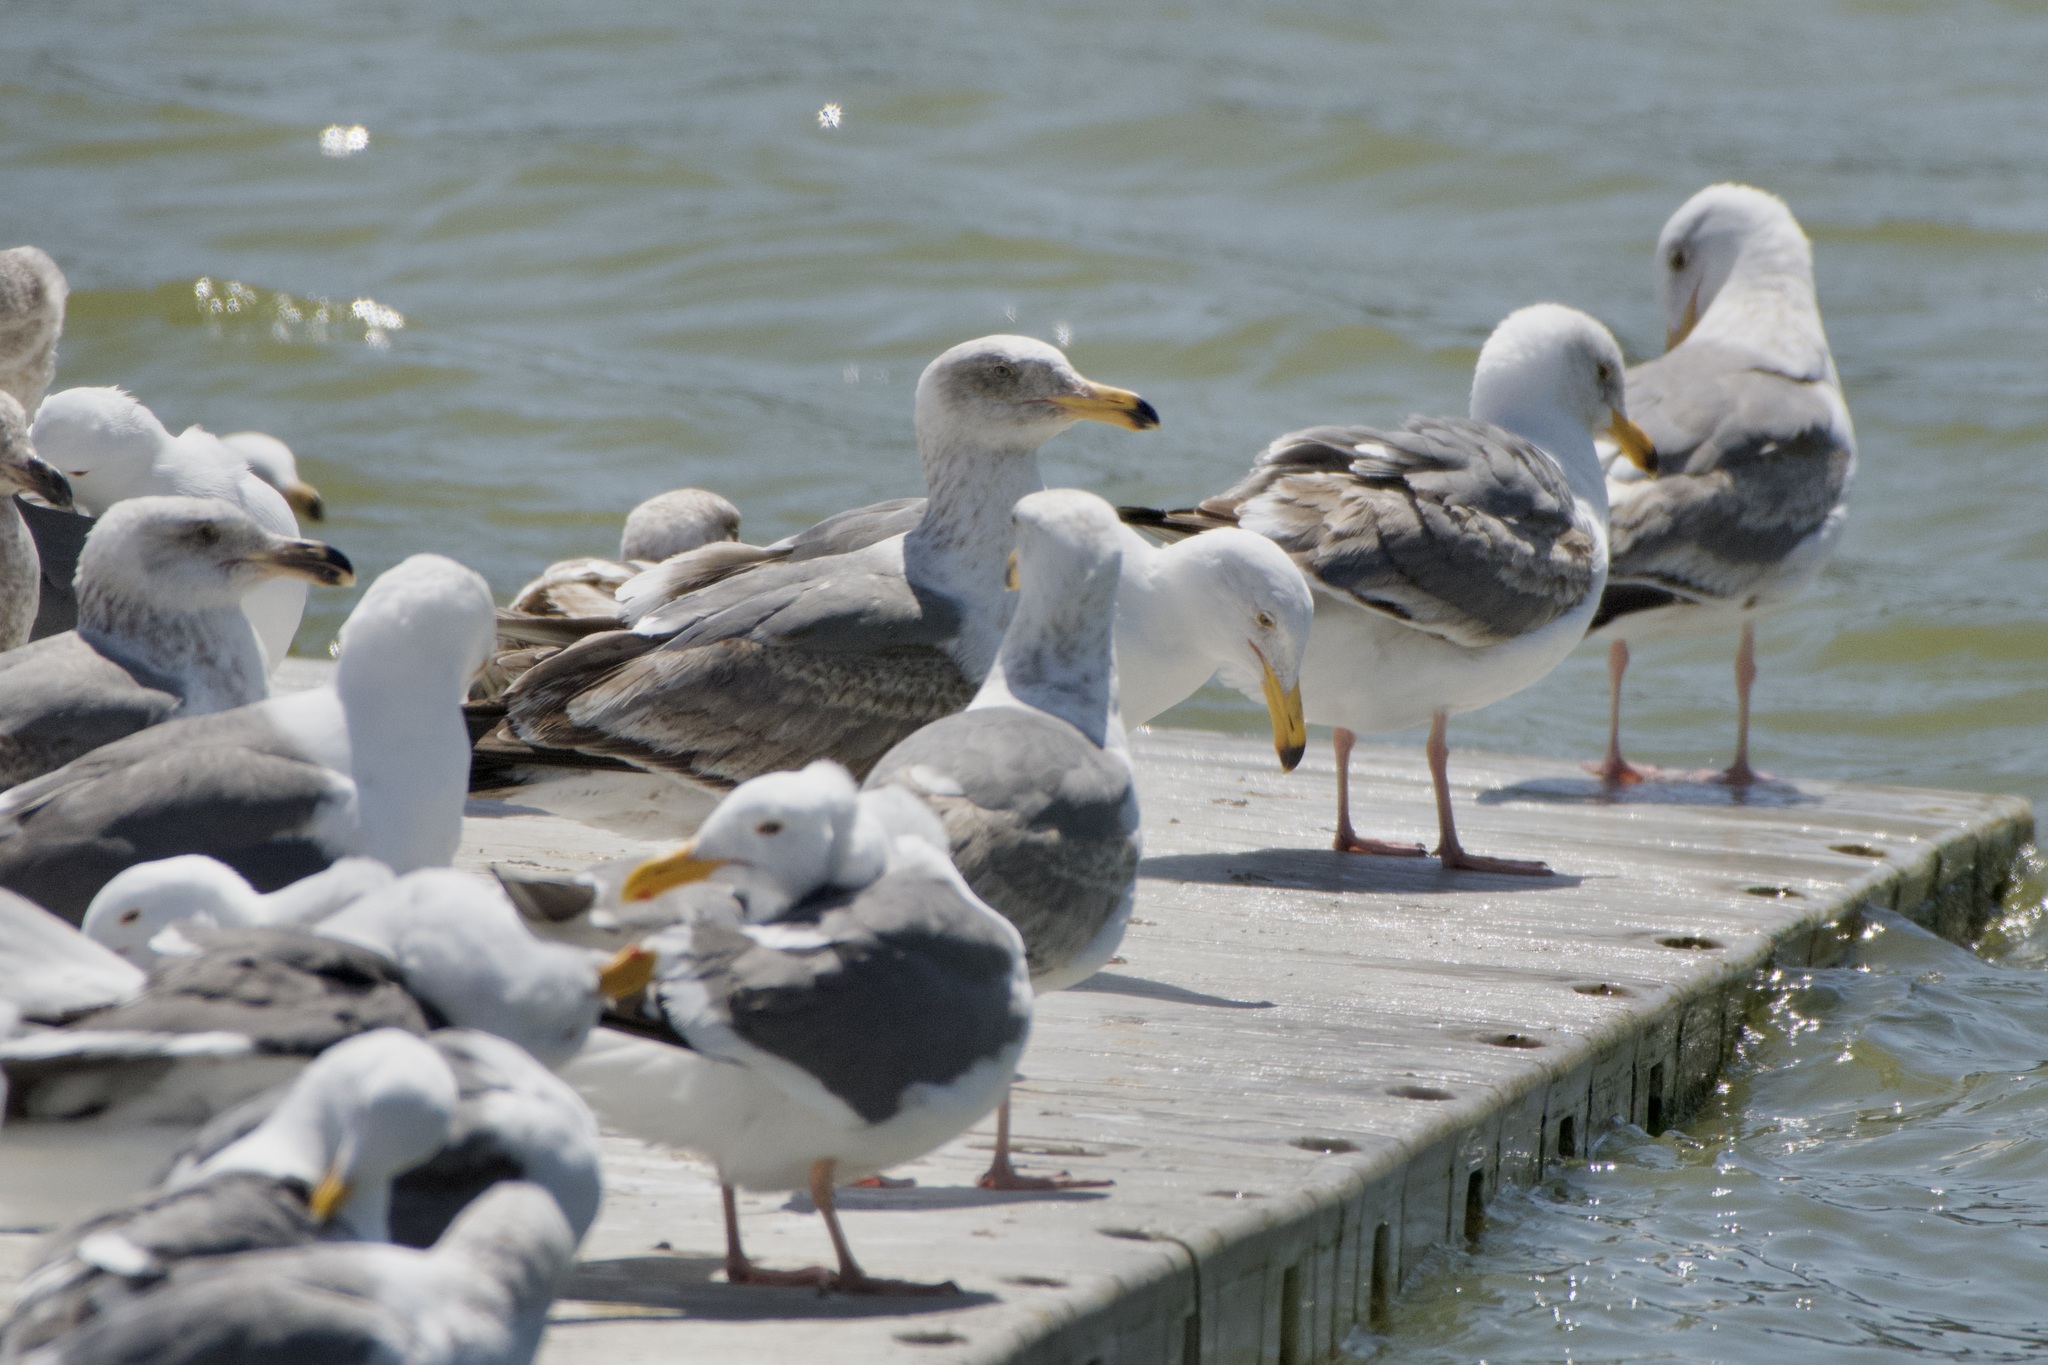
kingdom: Animalia
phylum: Chordata
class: Aves
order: Charadriiformes
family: Laridae
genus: Larus
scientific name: Larus occidentalis
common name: Western gull
